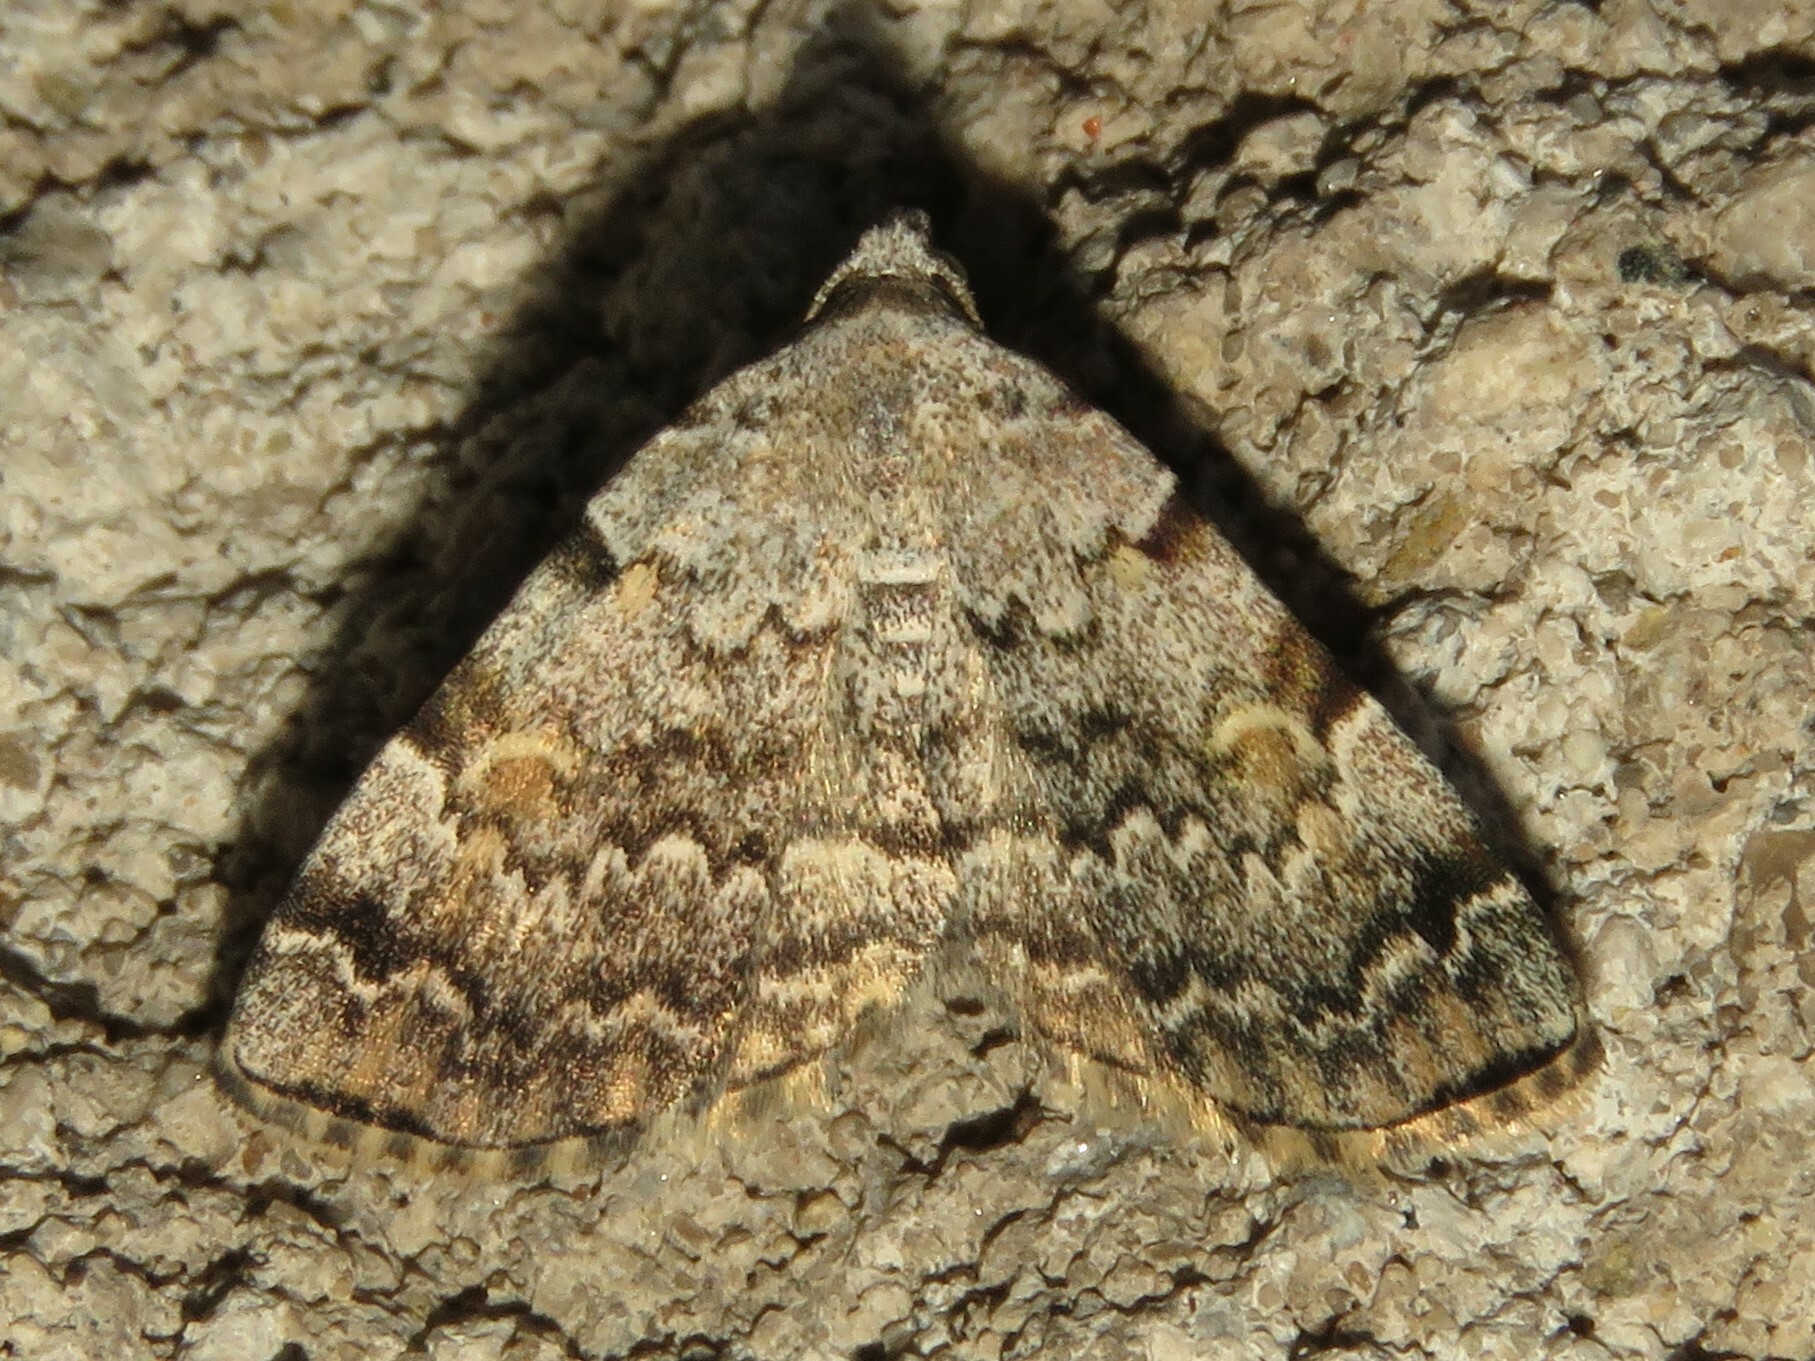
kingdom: Animalia
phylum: Arthropoda
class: Insecta
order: Lepidoptera
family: Erebidae
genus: Idia
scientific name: Idia americalis
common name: American idia moth
